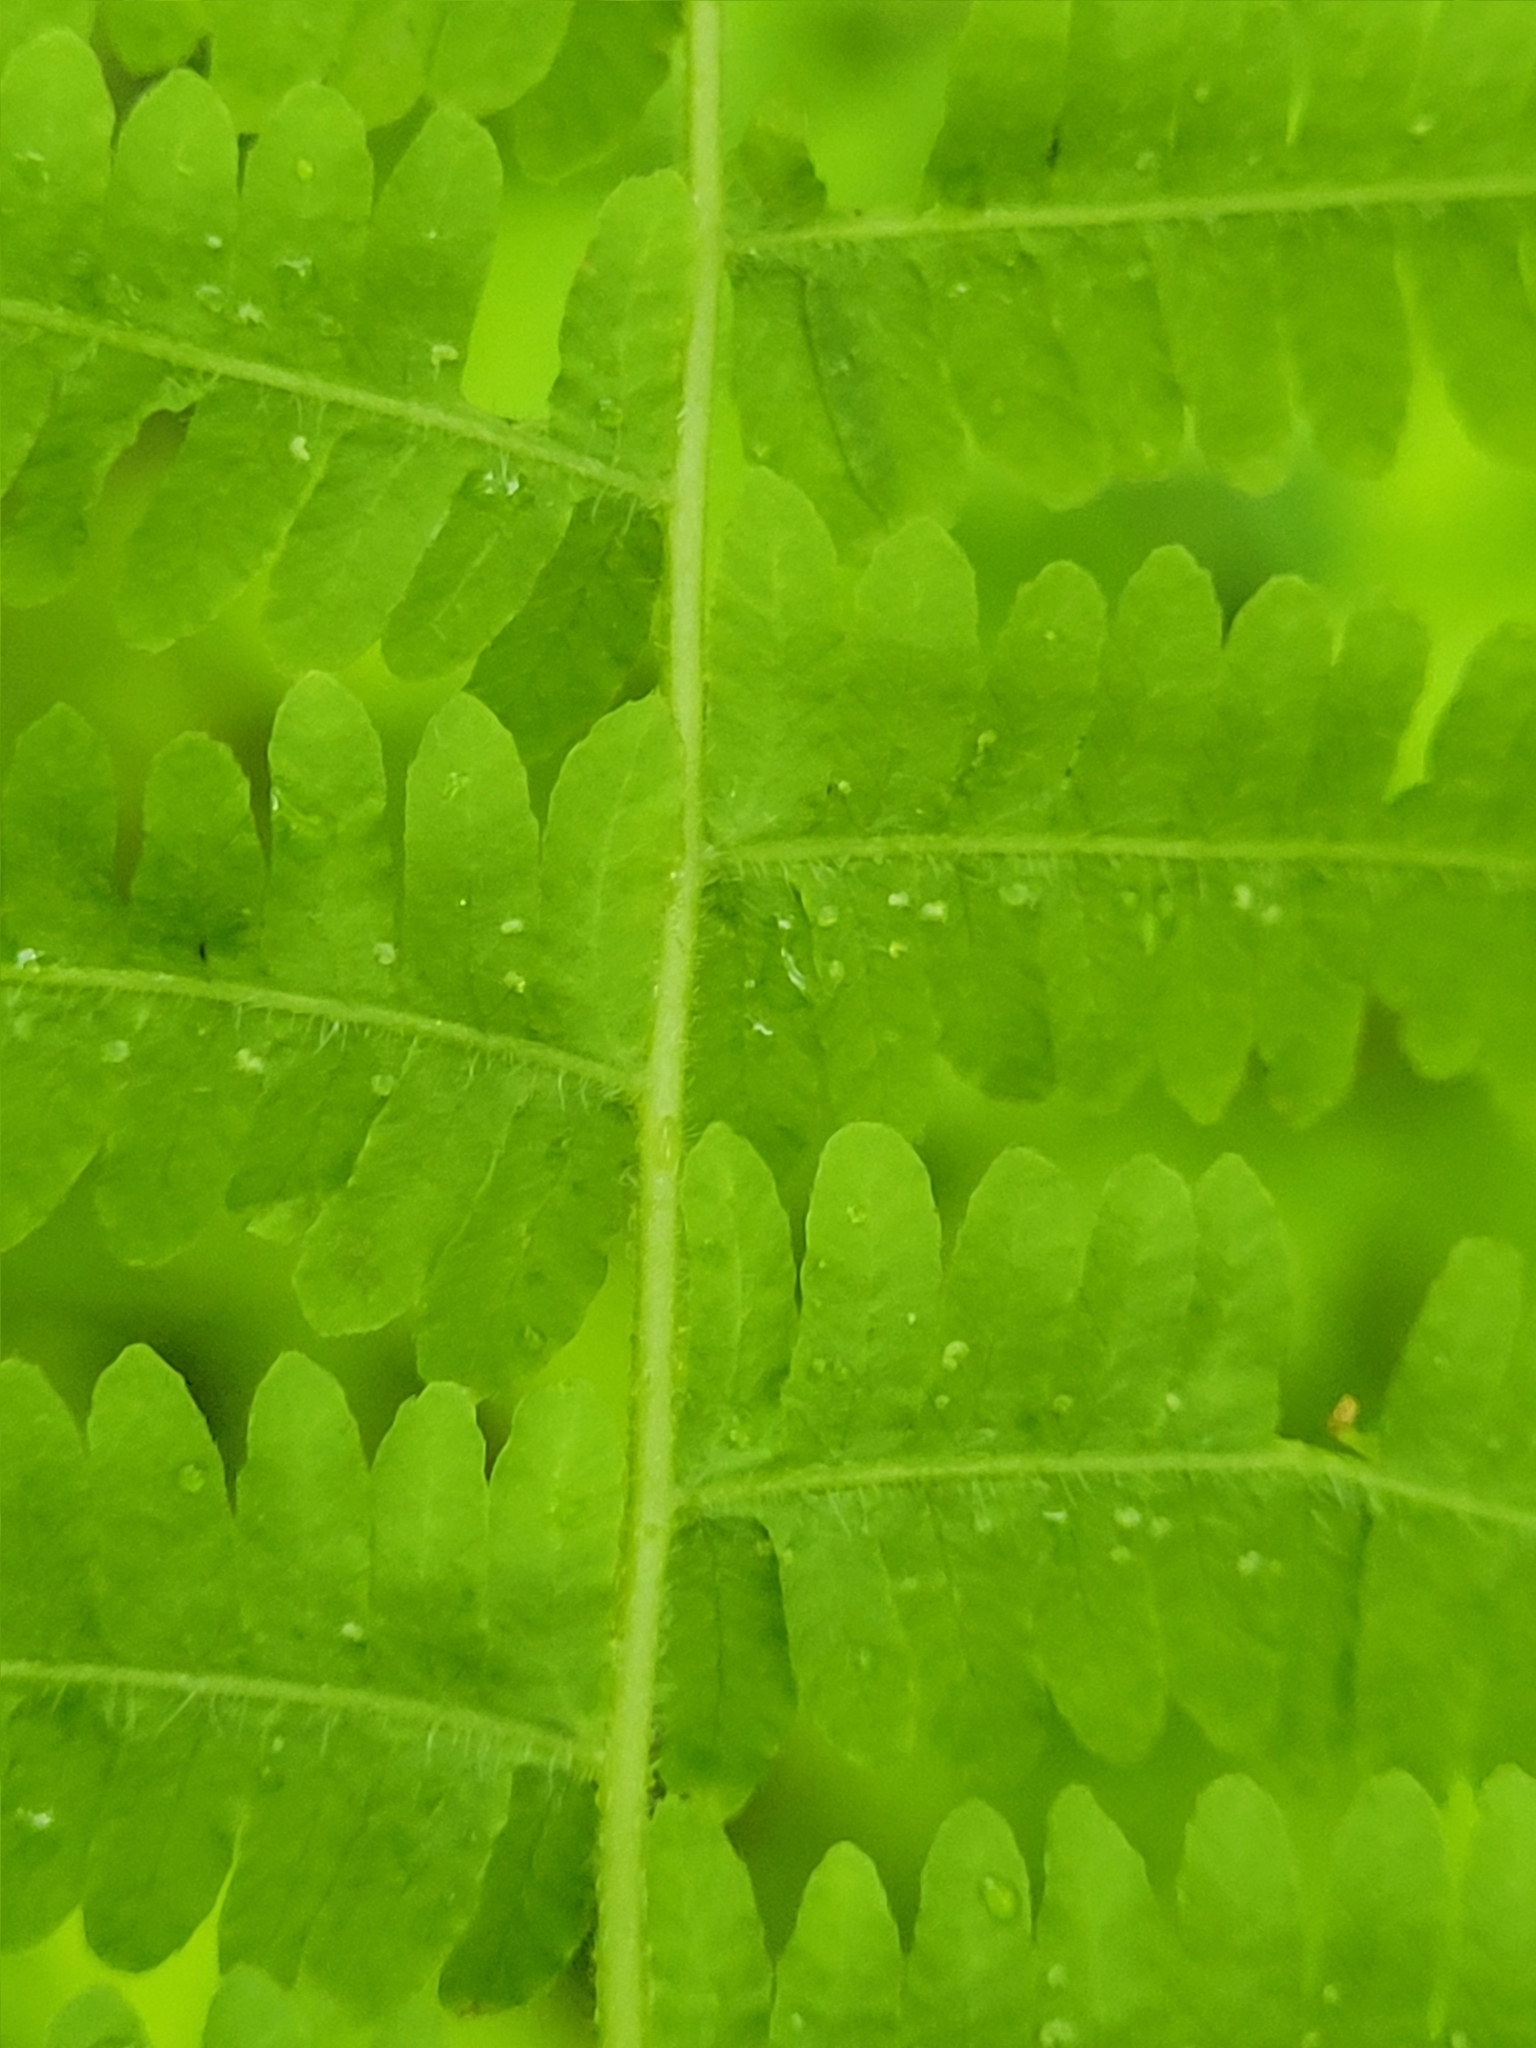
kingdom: Plantae
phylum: Tracheophyta
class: Polypodiopsida
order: Polypodiales
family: Thelypteridaceae
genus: Amauropelta
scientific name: Amauropelta noveboracensis
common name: New york fern
